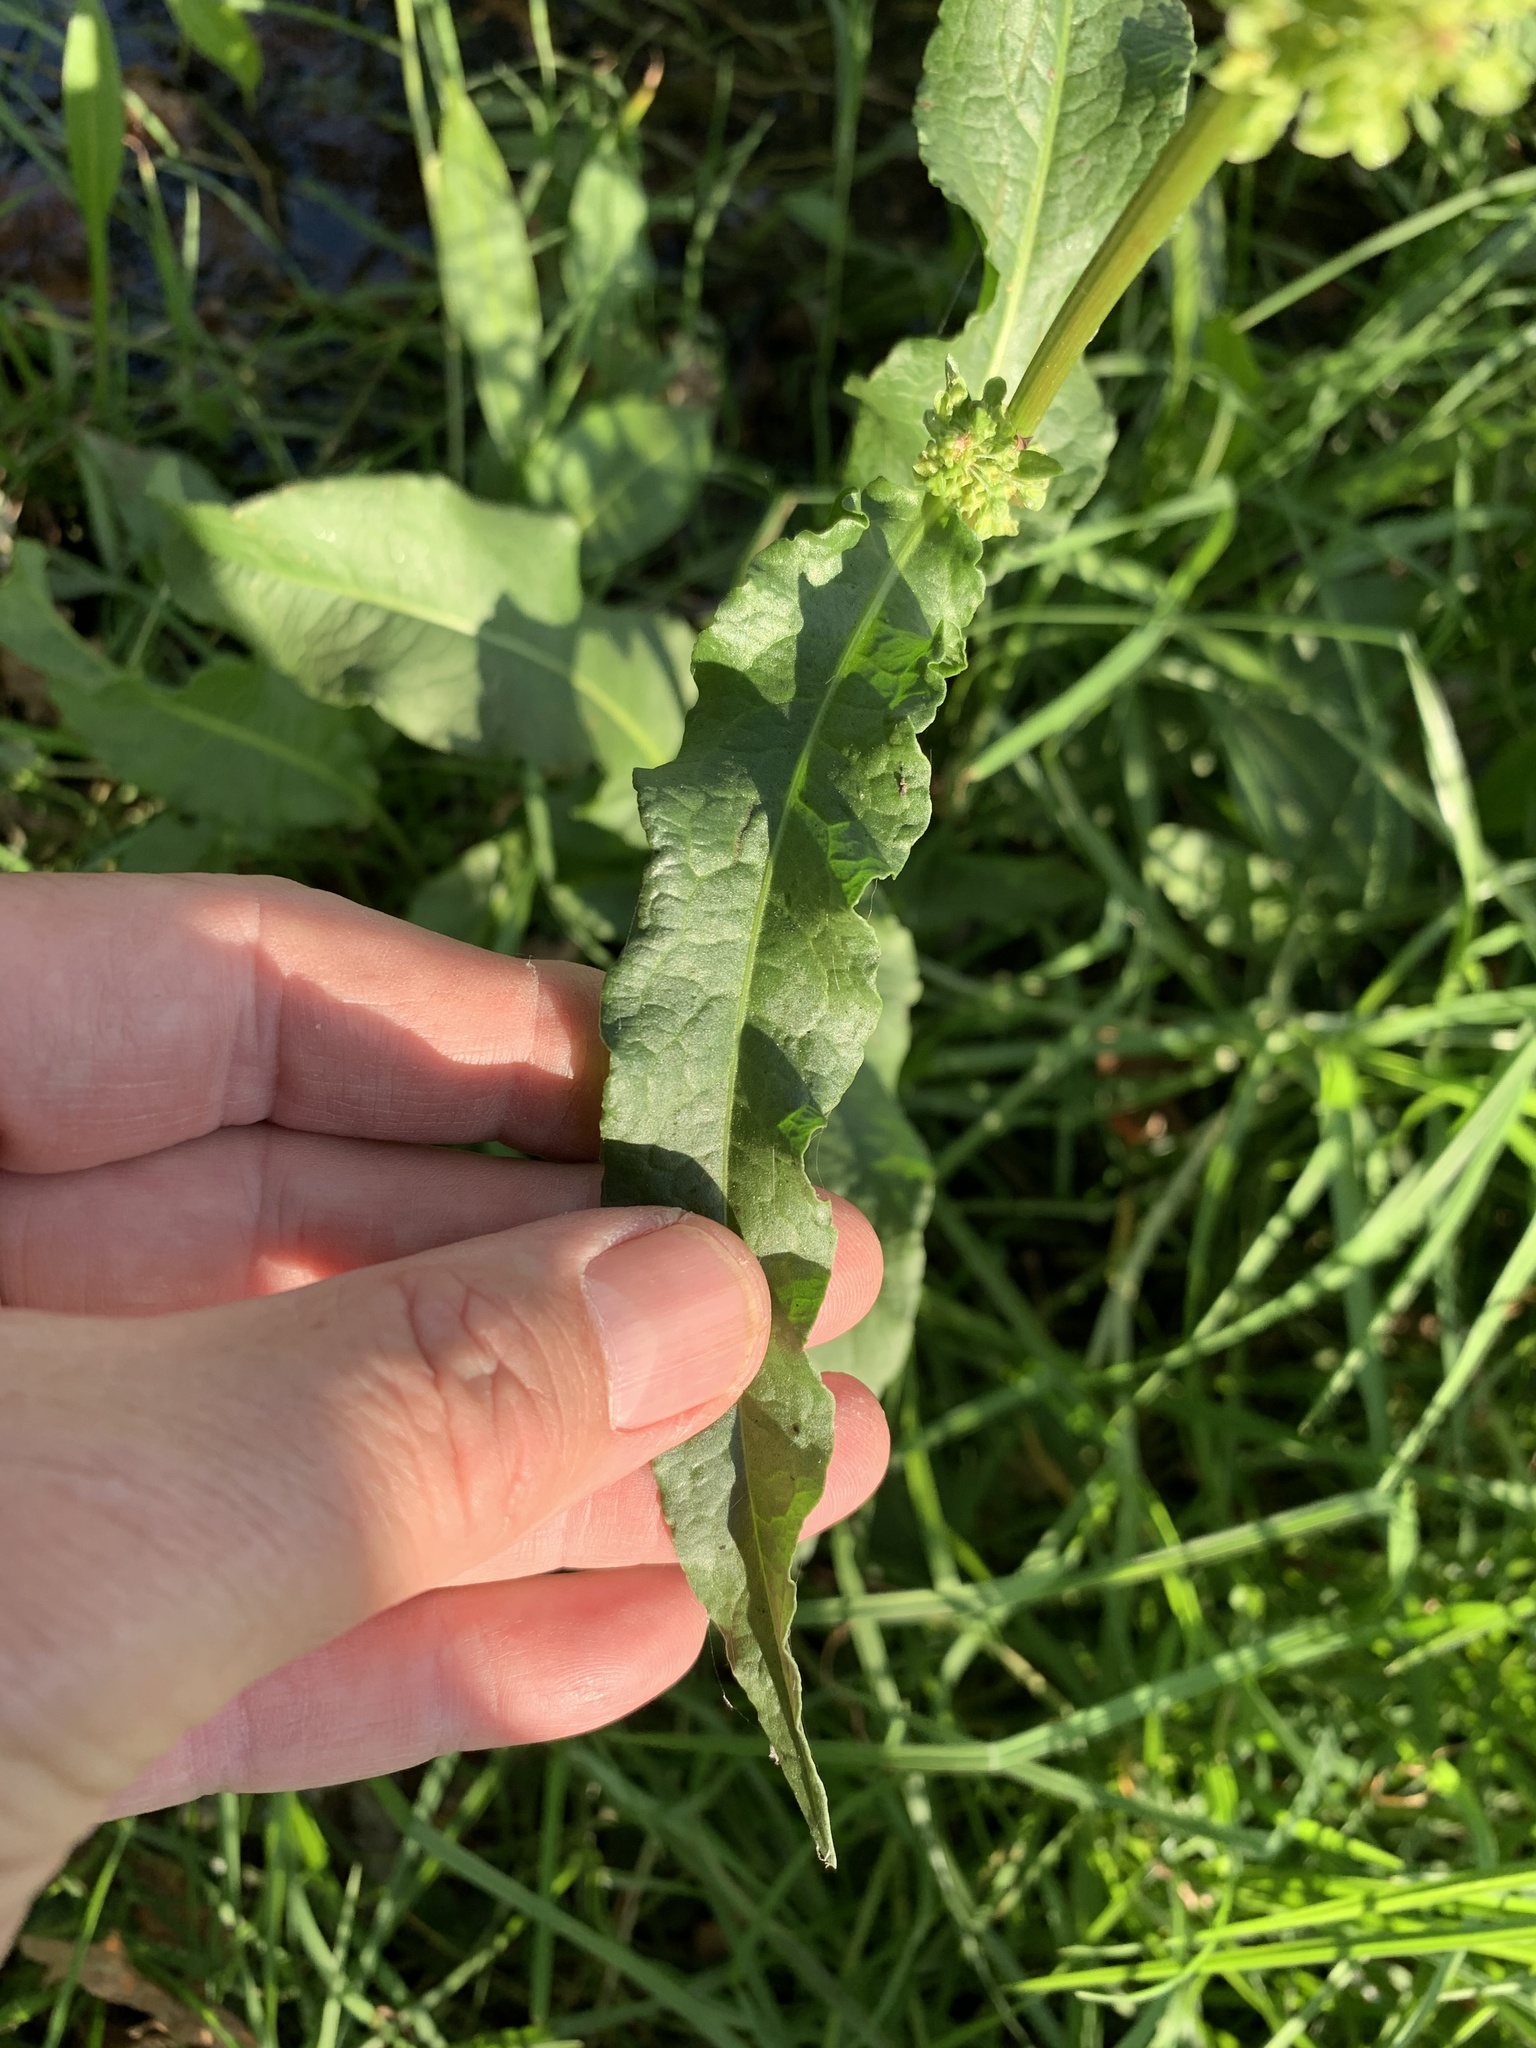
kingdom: Plantae
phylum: Tracheophyta
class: Magnoliopsida
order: Caryophyllales
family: Polygonaceae
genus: Rumex
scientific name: Rumex crispus
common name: Curled dock
